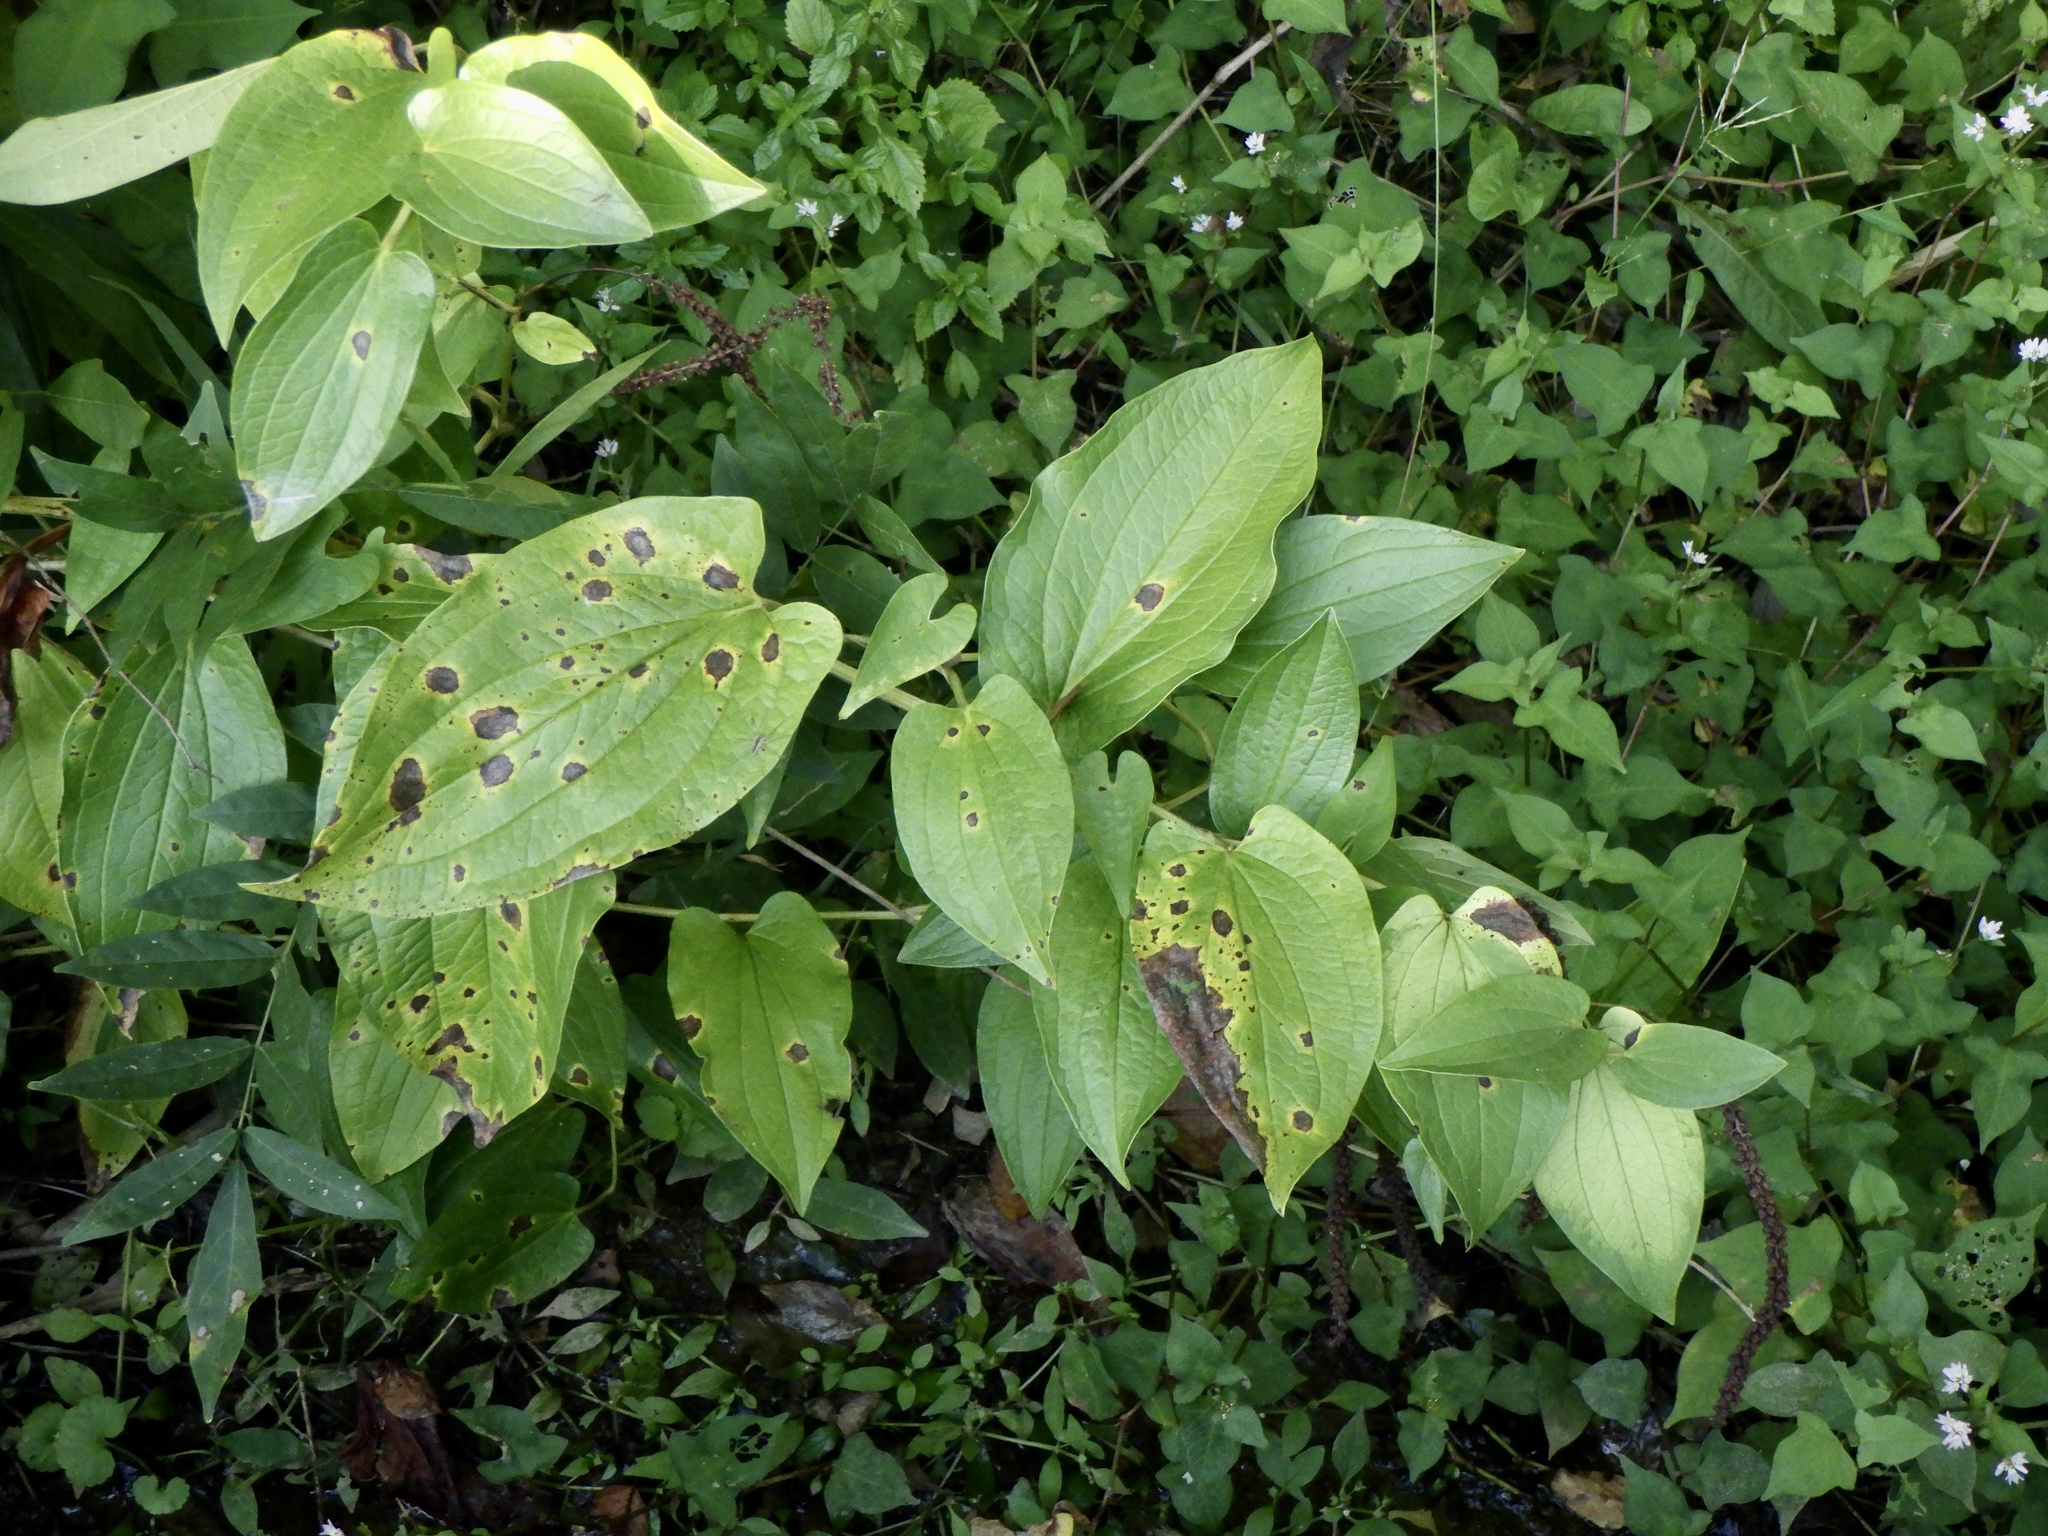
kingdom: Plantae
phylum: Tracheophyta
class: Magnoliopsida
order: Piperales
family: Saururaceae
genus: Saururus
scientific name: Saururus chinensis
